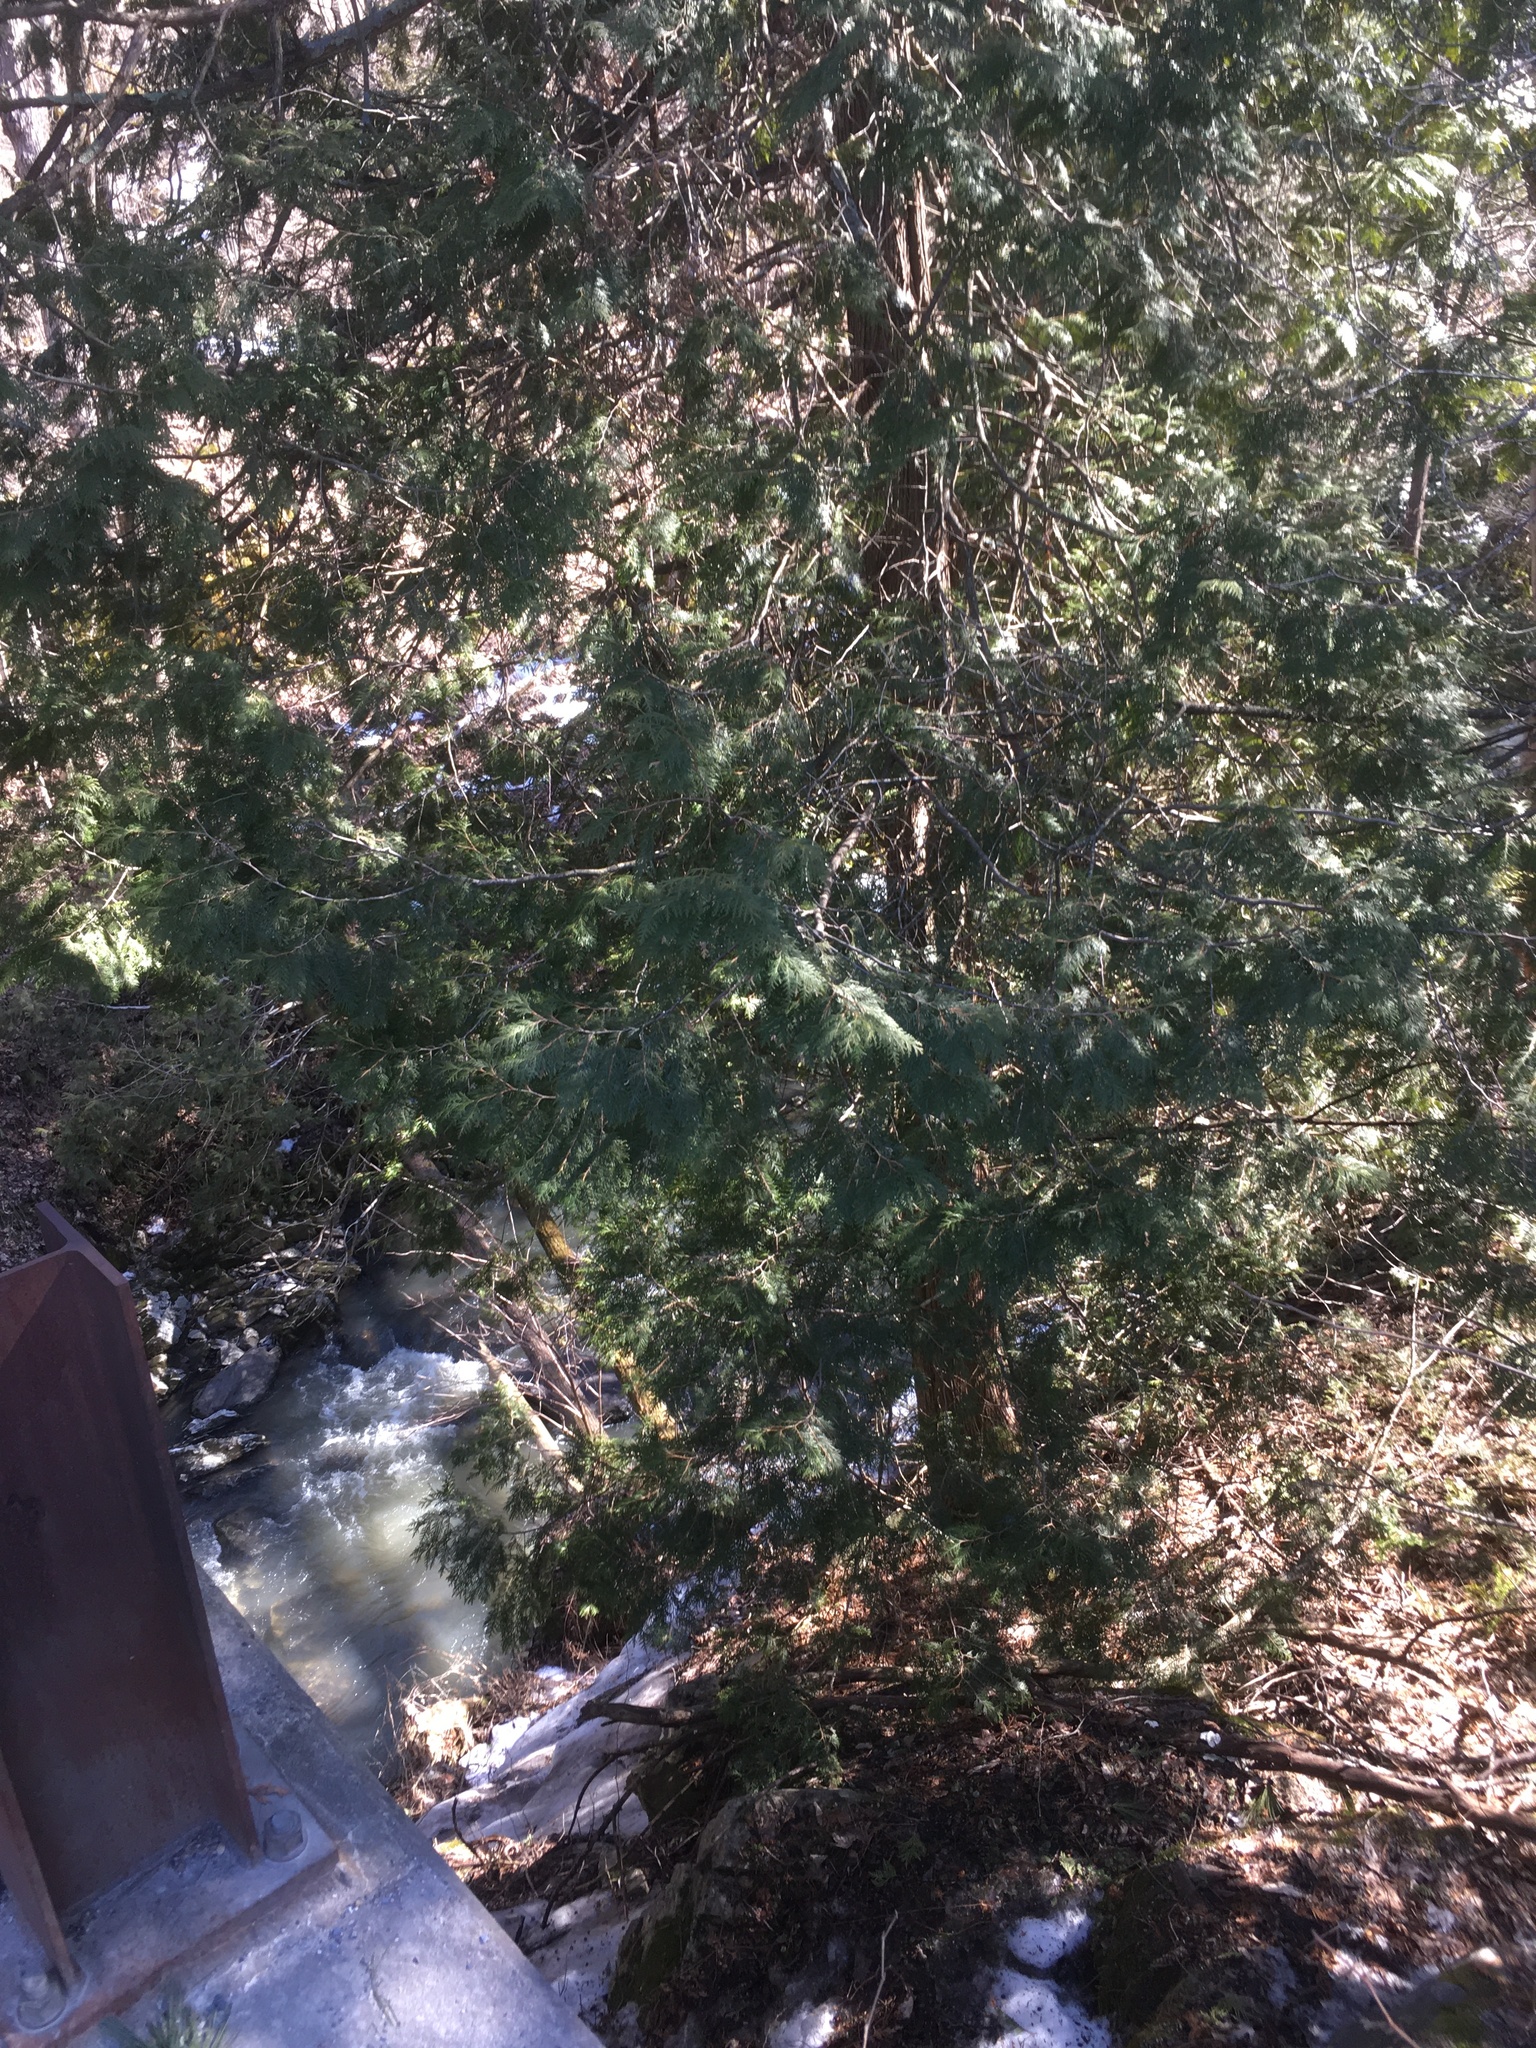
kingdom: Plantae
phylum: Tracheophyta
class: Pinopsida
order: Pinales
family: Cupressaceae
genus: Thuja
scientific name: Thuja occidentalis
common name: Northern white-cedar
